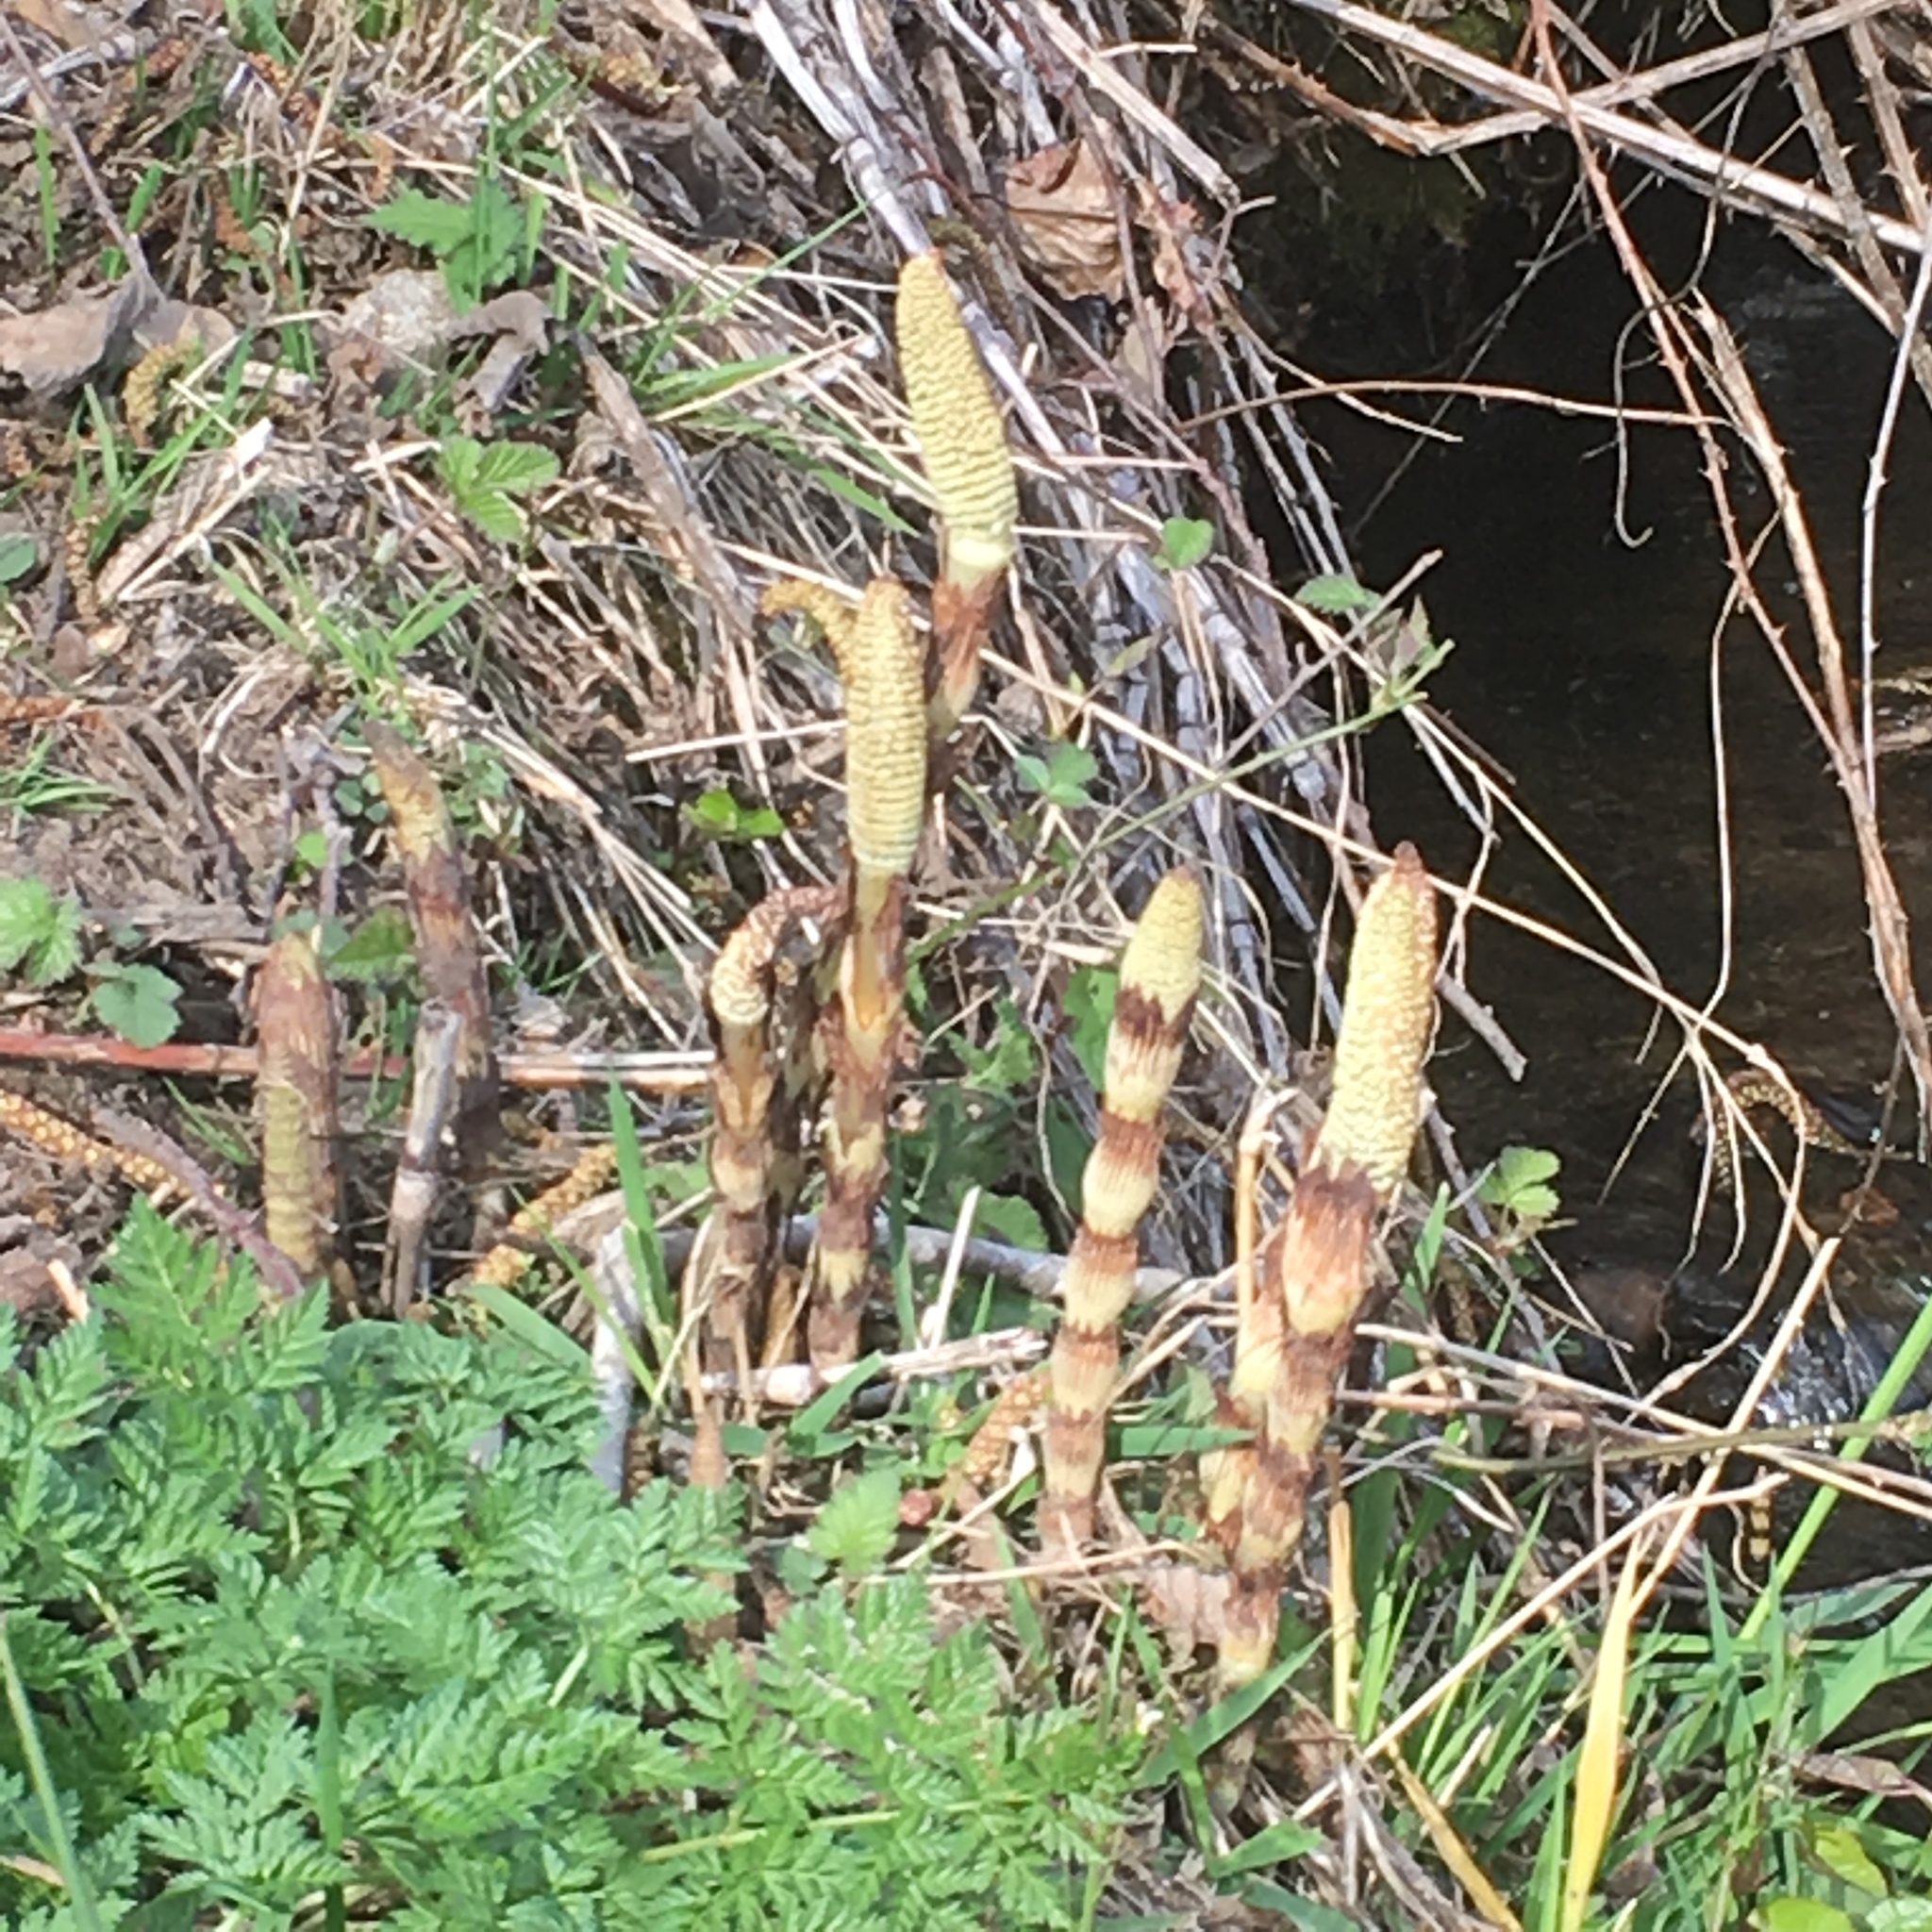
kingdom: Plantae
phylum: Tracheophyta
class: Polypodiopsida
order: Equisetales
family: Equisetaceae
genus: Equisetum
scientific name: Equisetum braunii
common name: Braun's horsetail
